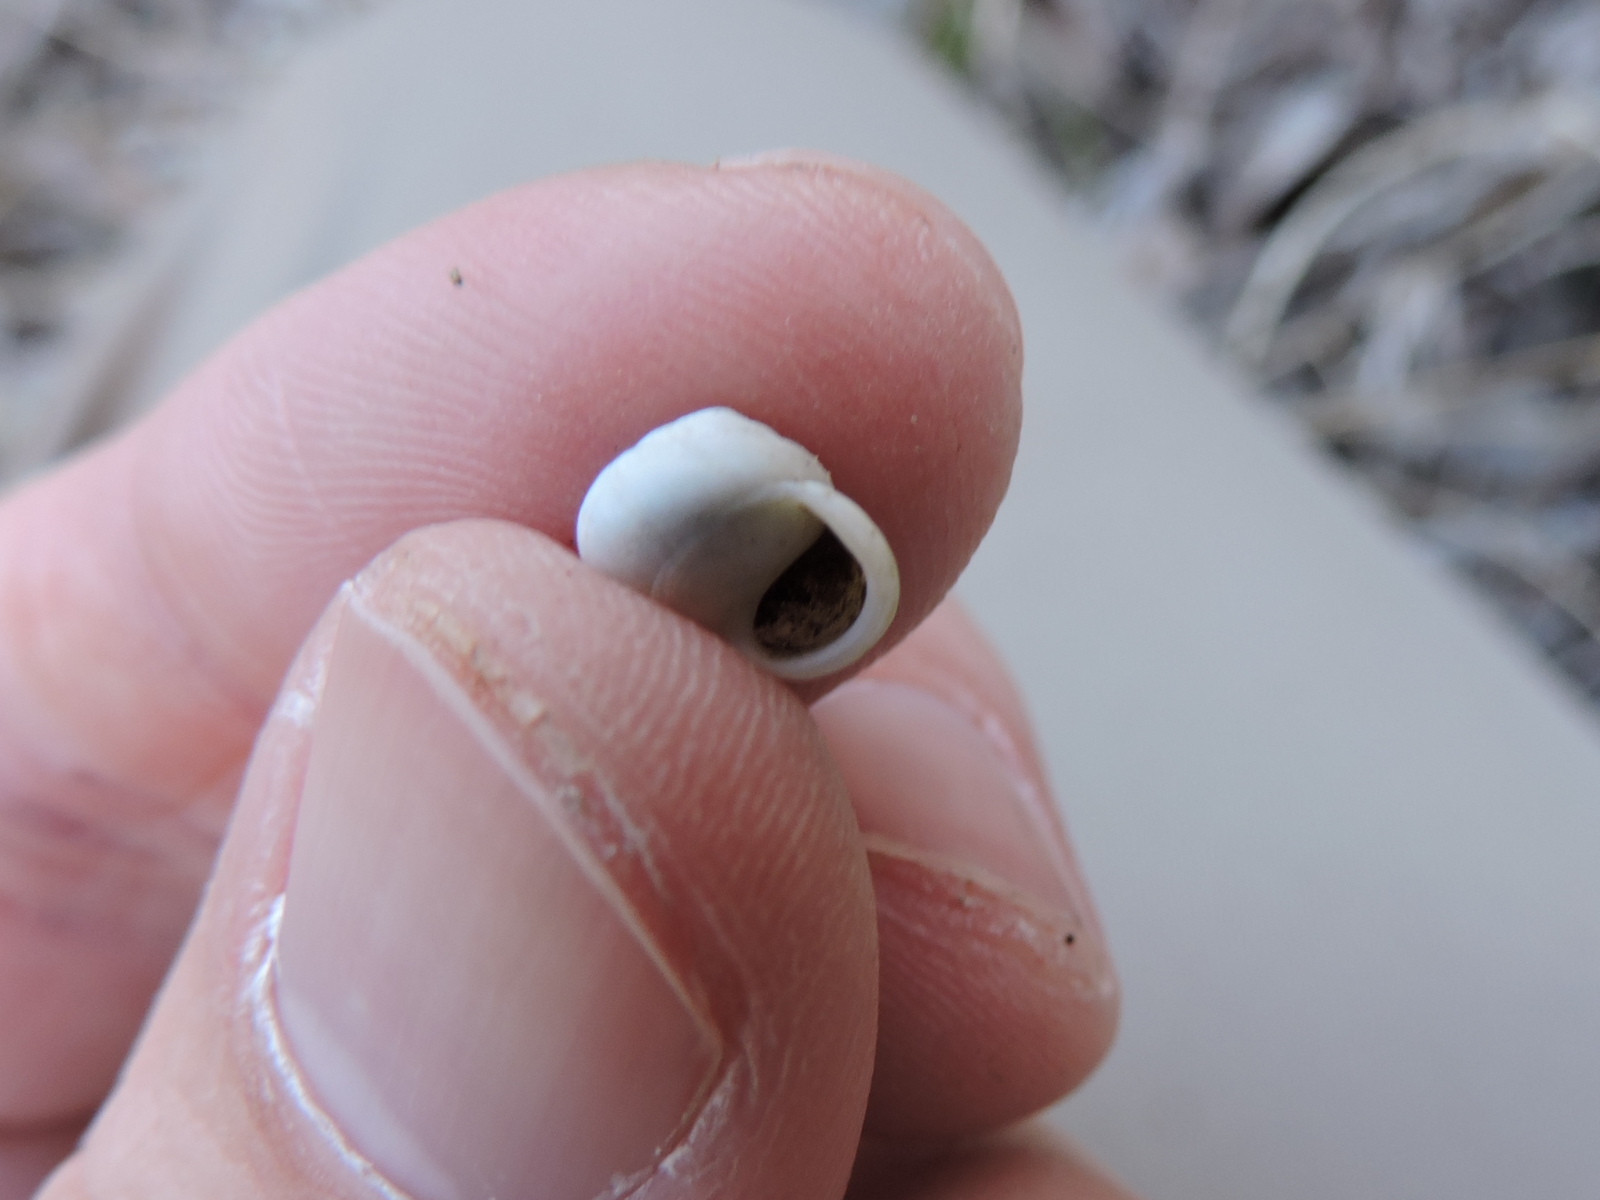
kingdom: Animalia
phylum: Mollusca
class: Gastropoda
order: Cycloneritida
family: Helicinidae
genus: Helicina
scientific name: Helicina orbiculata
